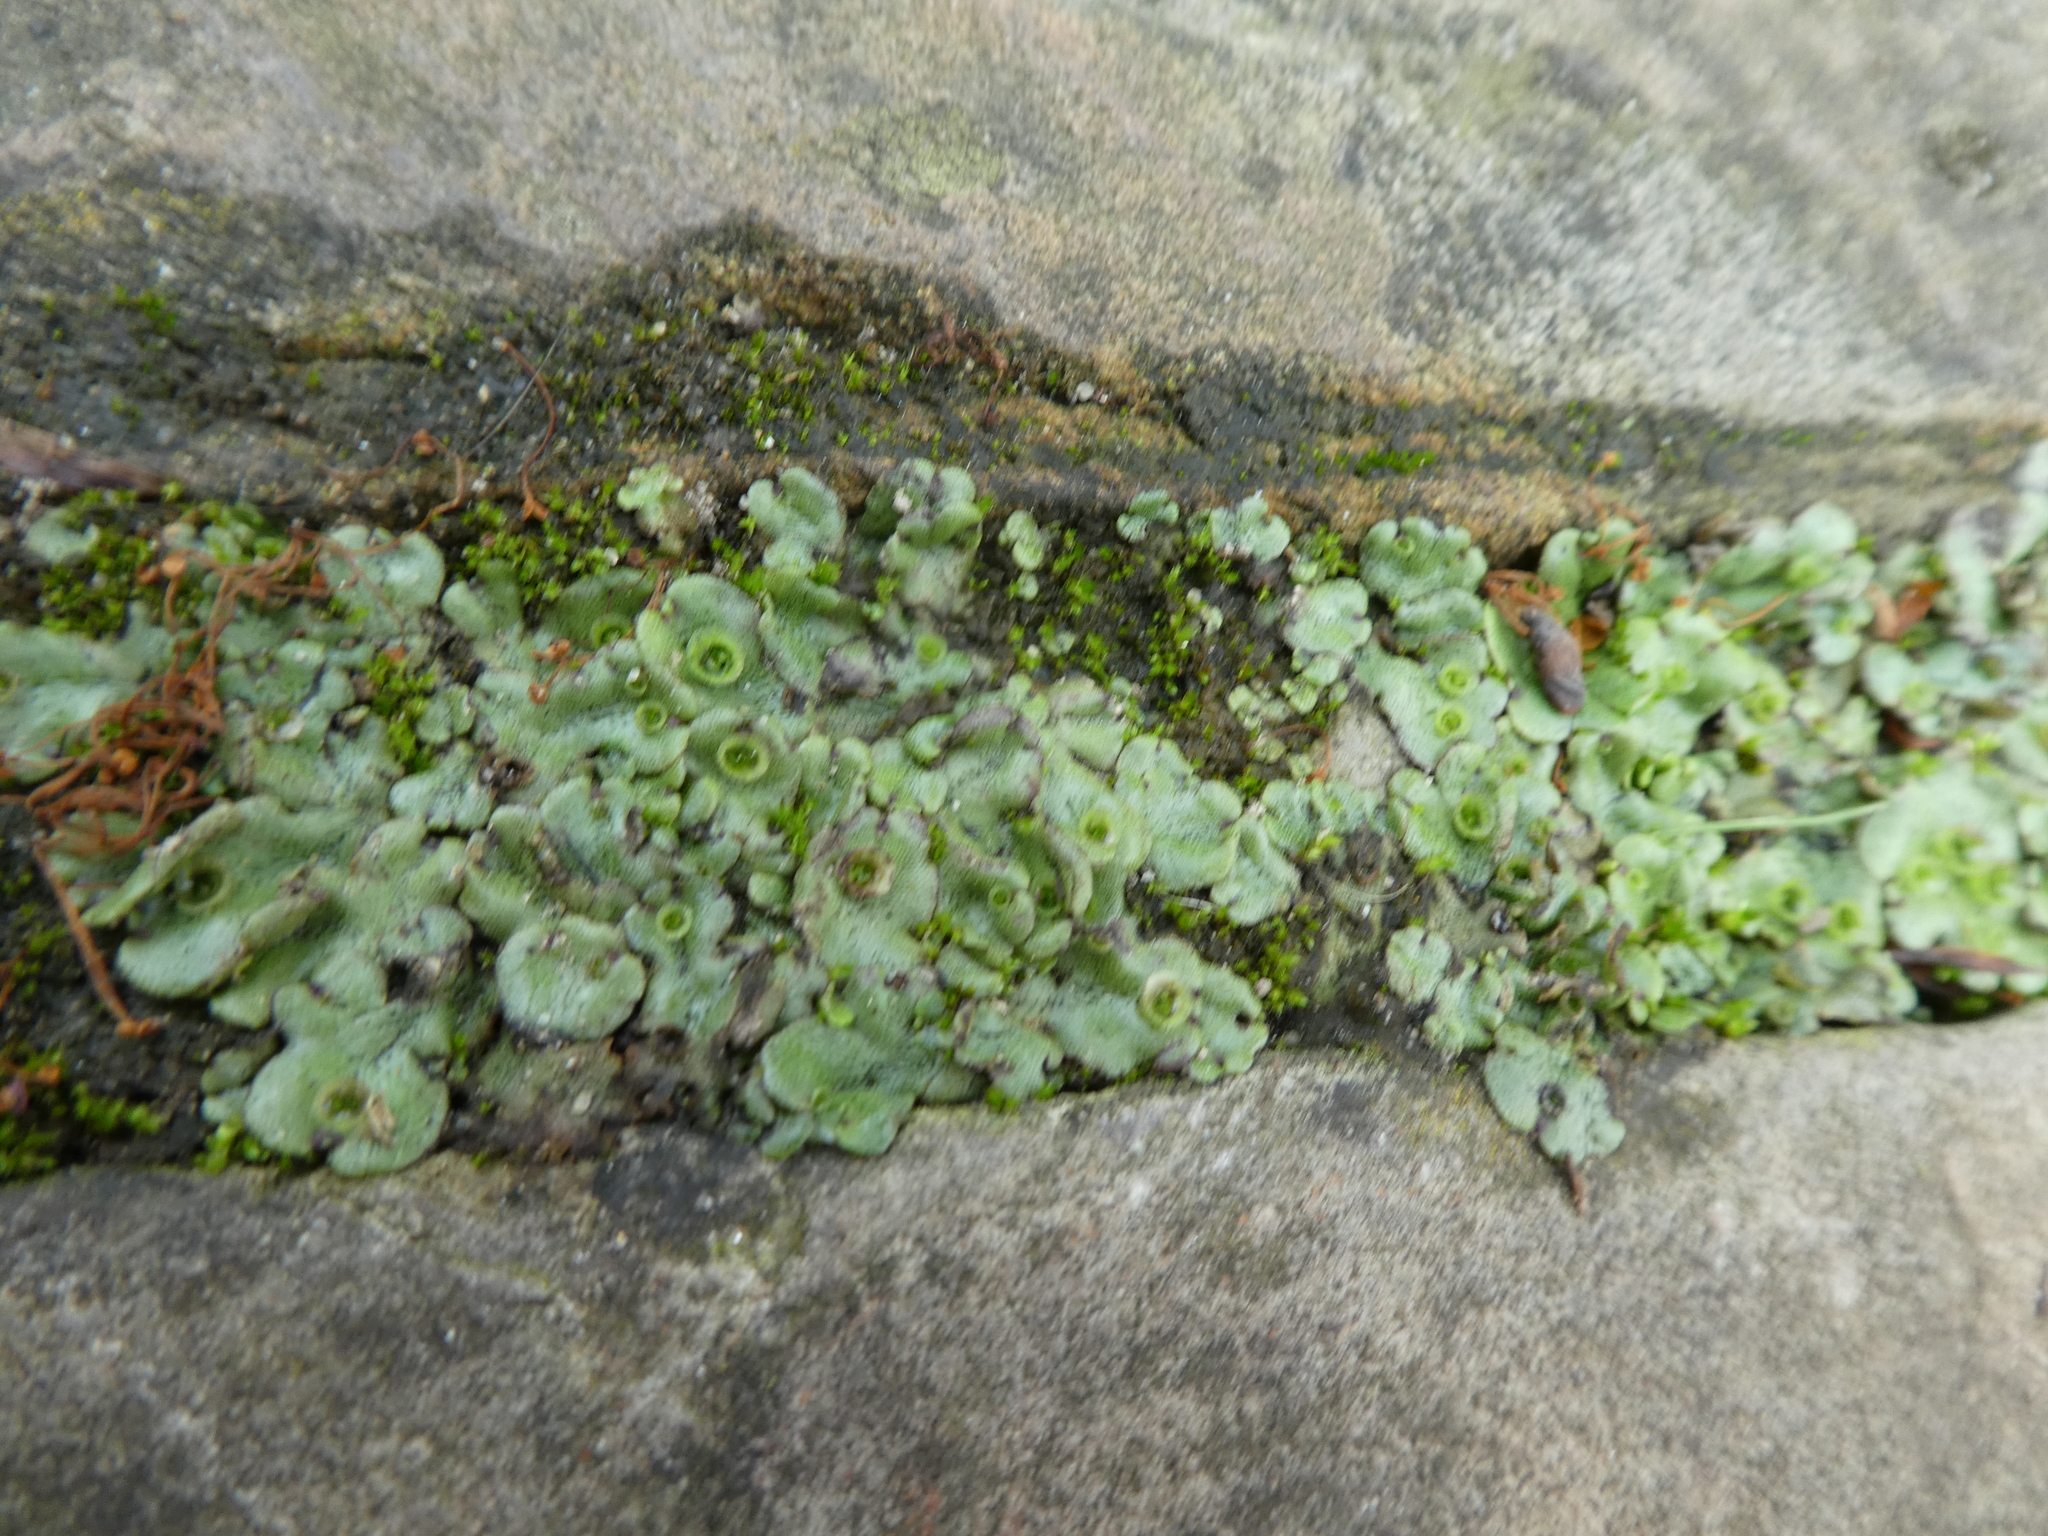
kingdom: Plantae
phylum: Marchantiophyta
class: Marchantiopsida
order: Marchantiales
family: Marchantiaceae
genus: Marchantia
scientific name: Marchantia polymorpha
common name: Common liverwort
